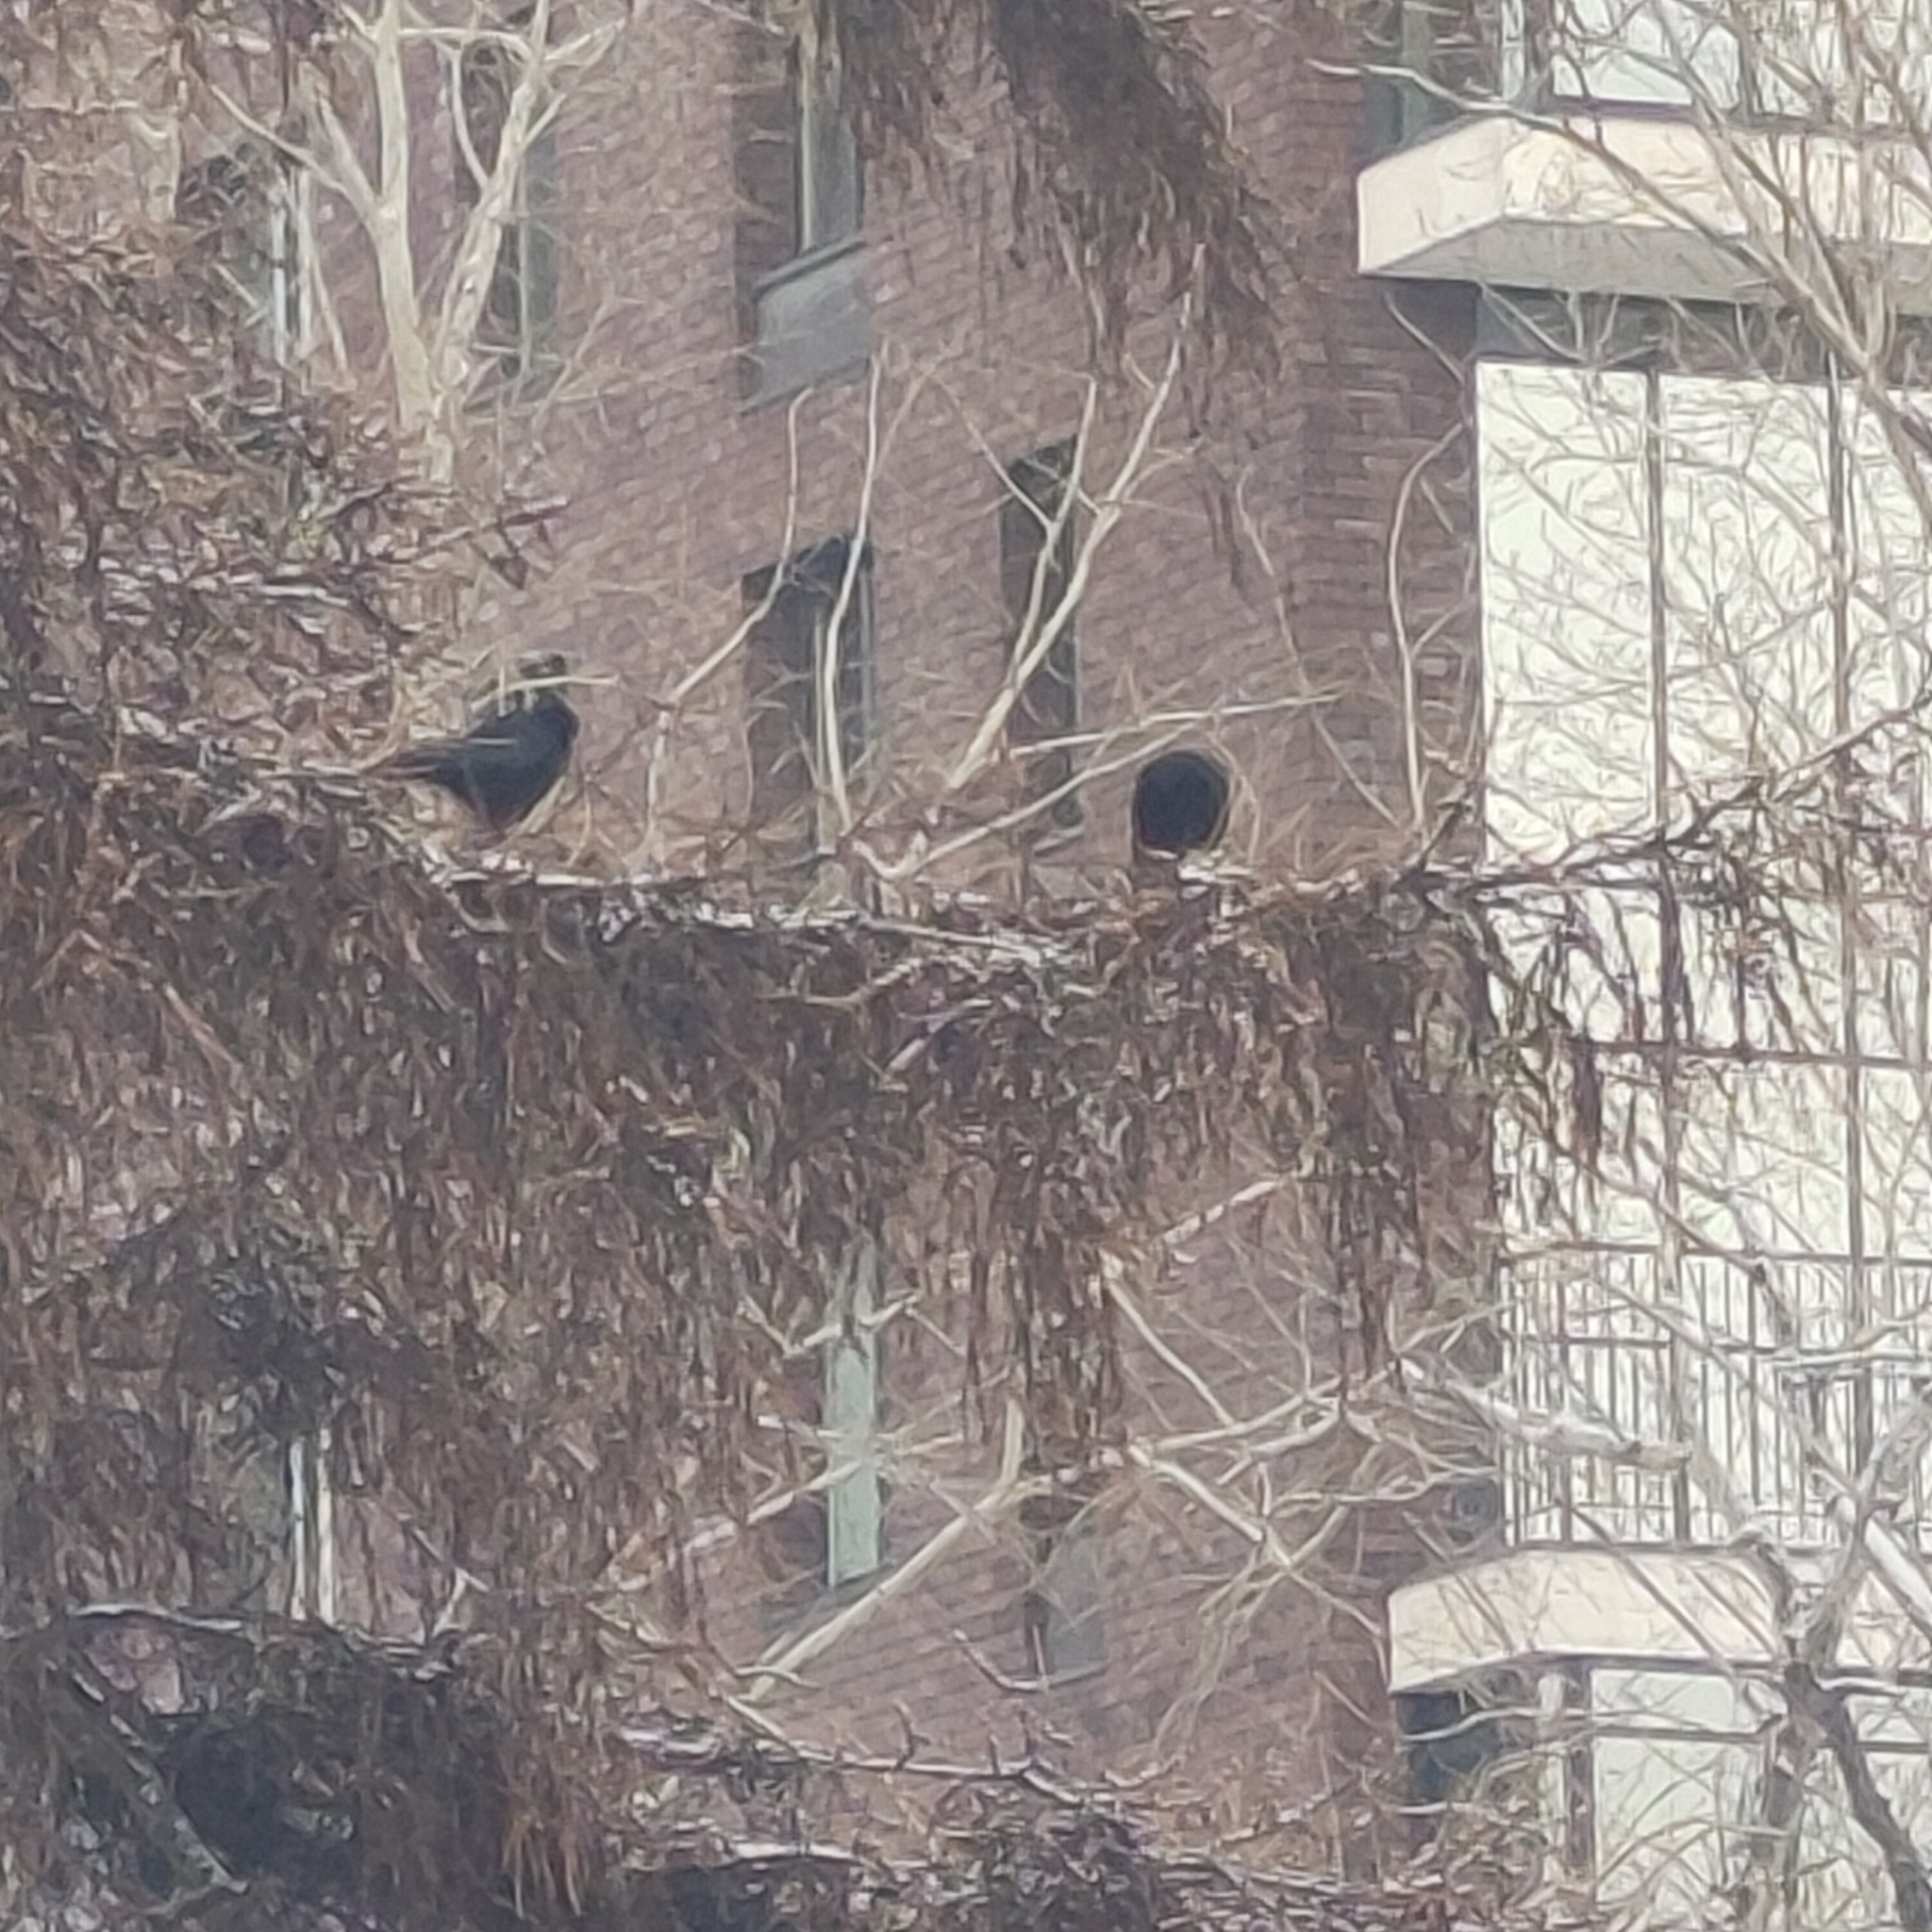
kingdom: Animalia
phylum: Chordata
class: Aves
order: Passeriformes
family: Corvidae
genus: Corvus
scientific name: Corvus corone
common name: Carrion crow
